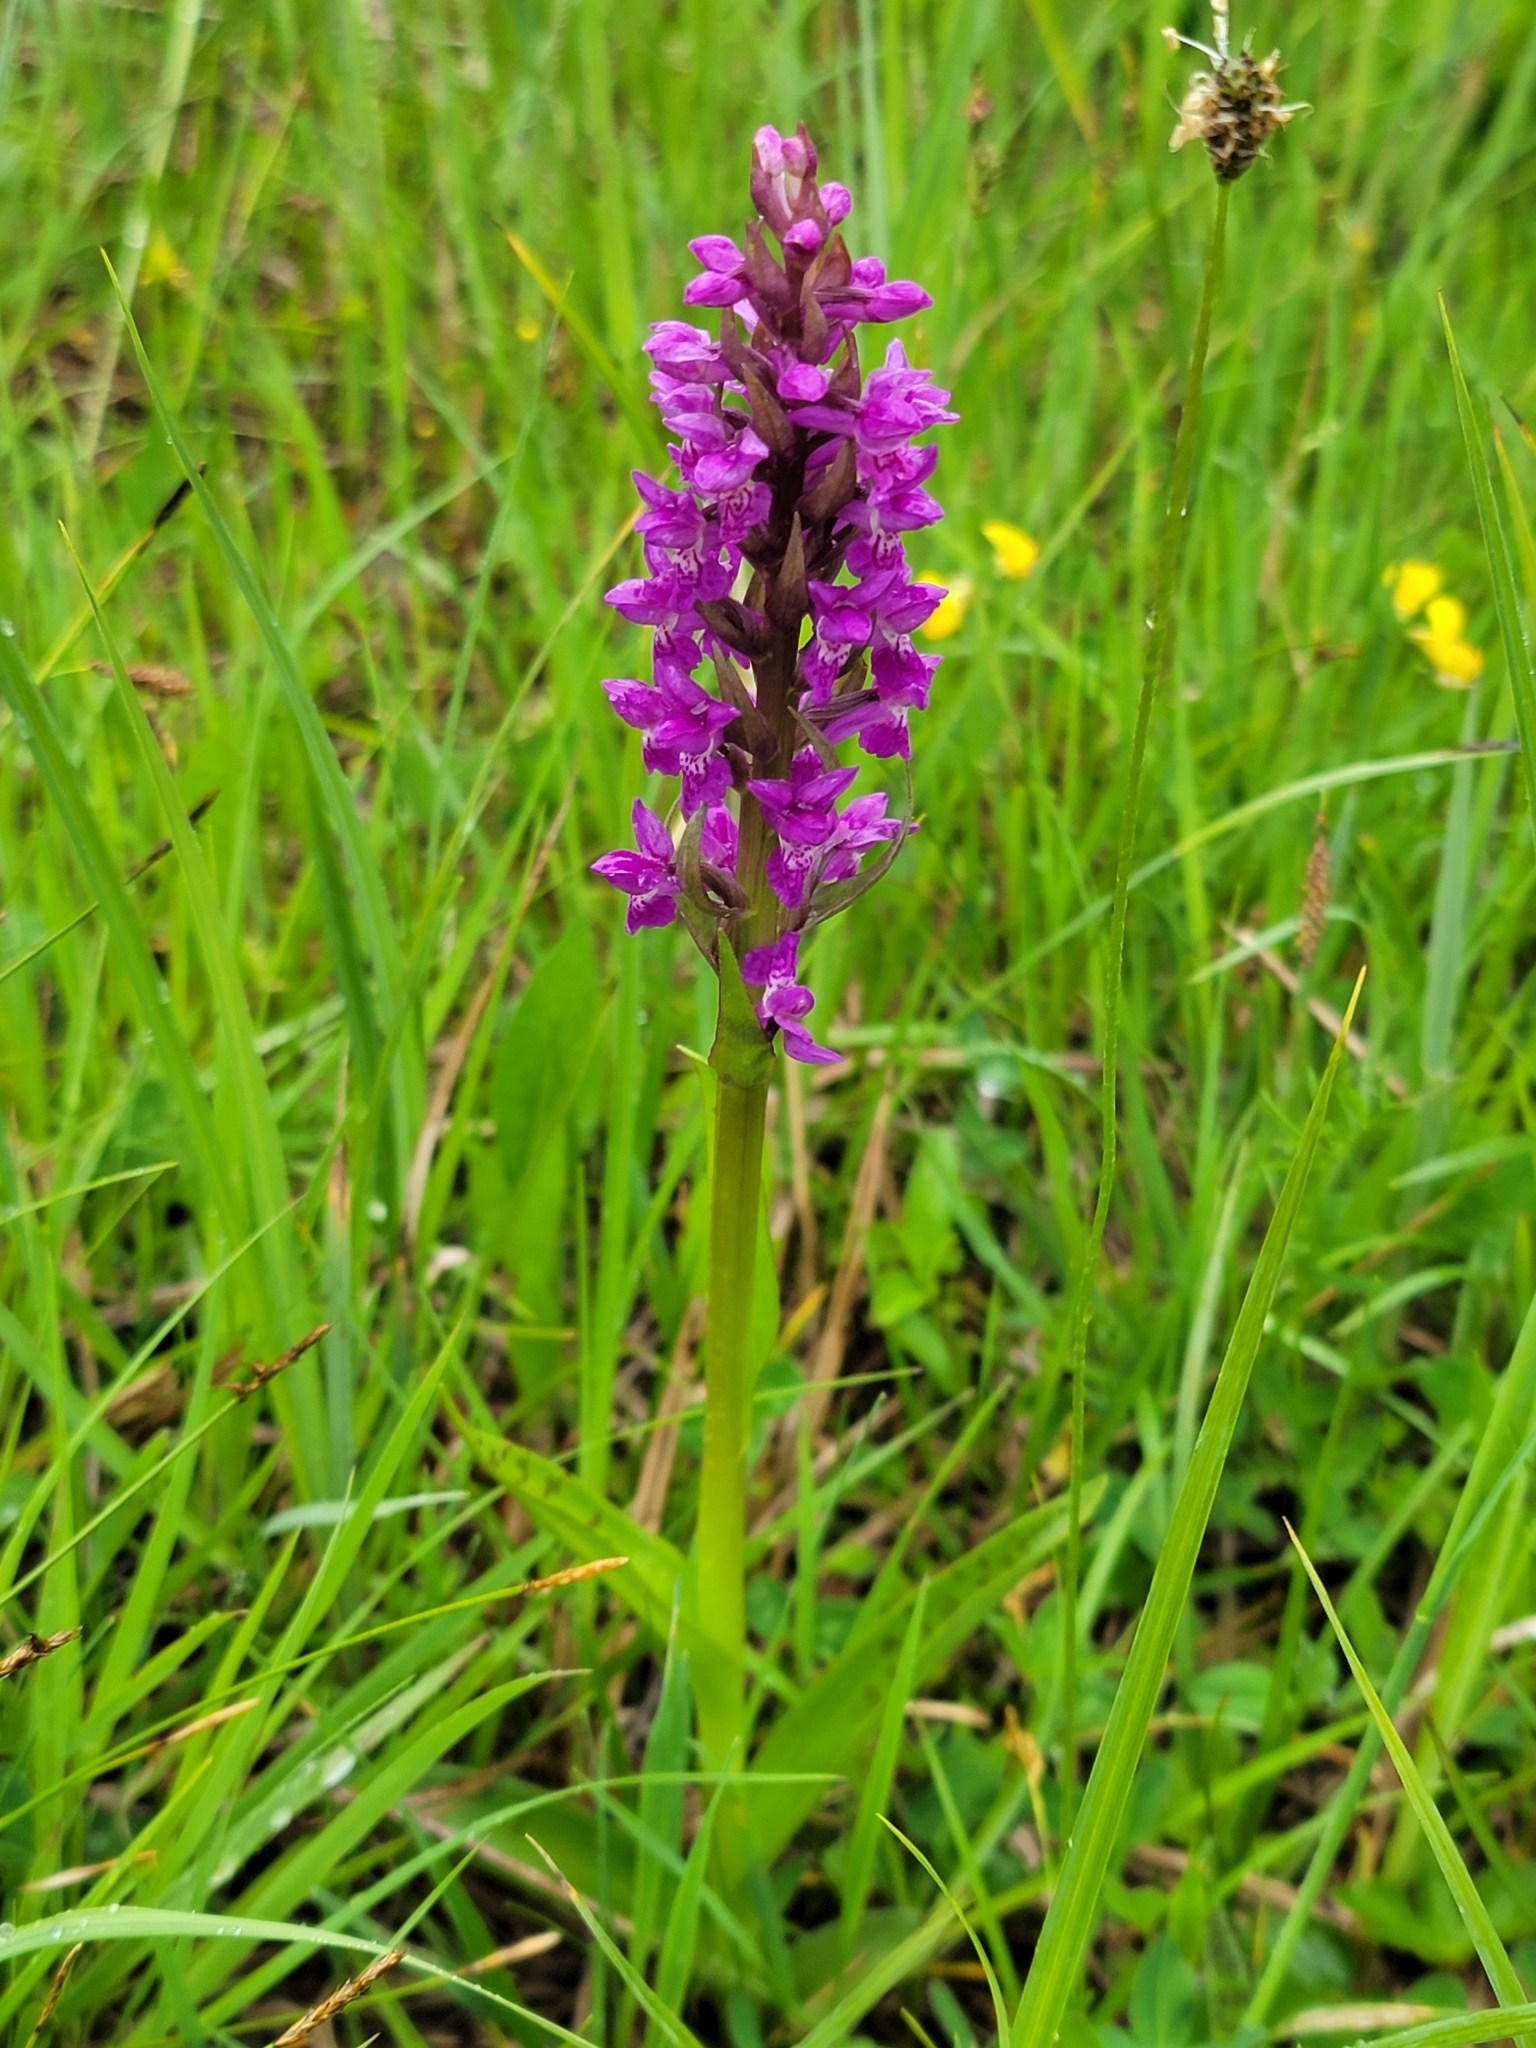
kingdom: Plantae
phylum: Tracheophyta
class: Liliopsida
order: Asparagales
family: Orchidaceae
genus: Dactylorhiza
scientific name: Dactylorhiza majalis
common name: Marsh orchid
